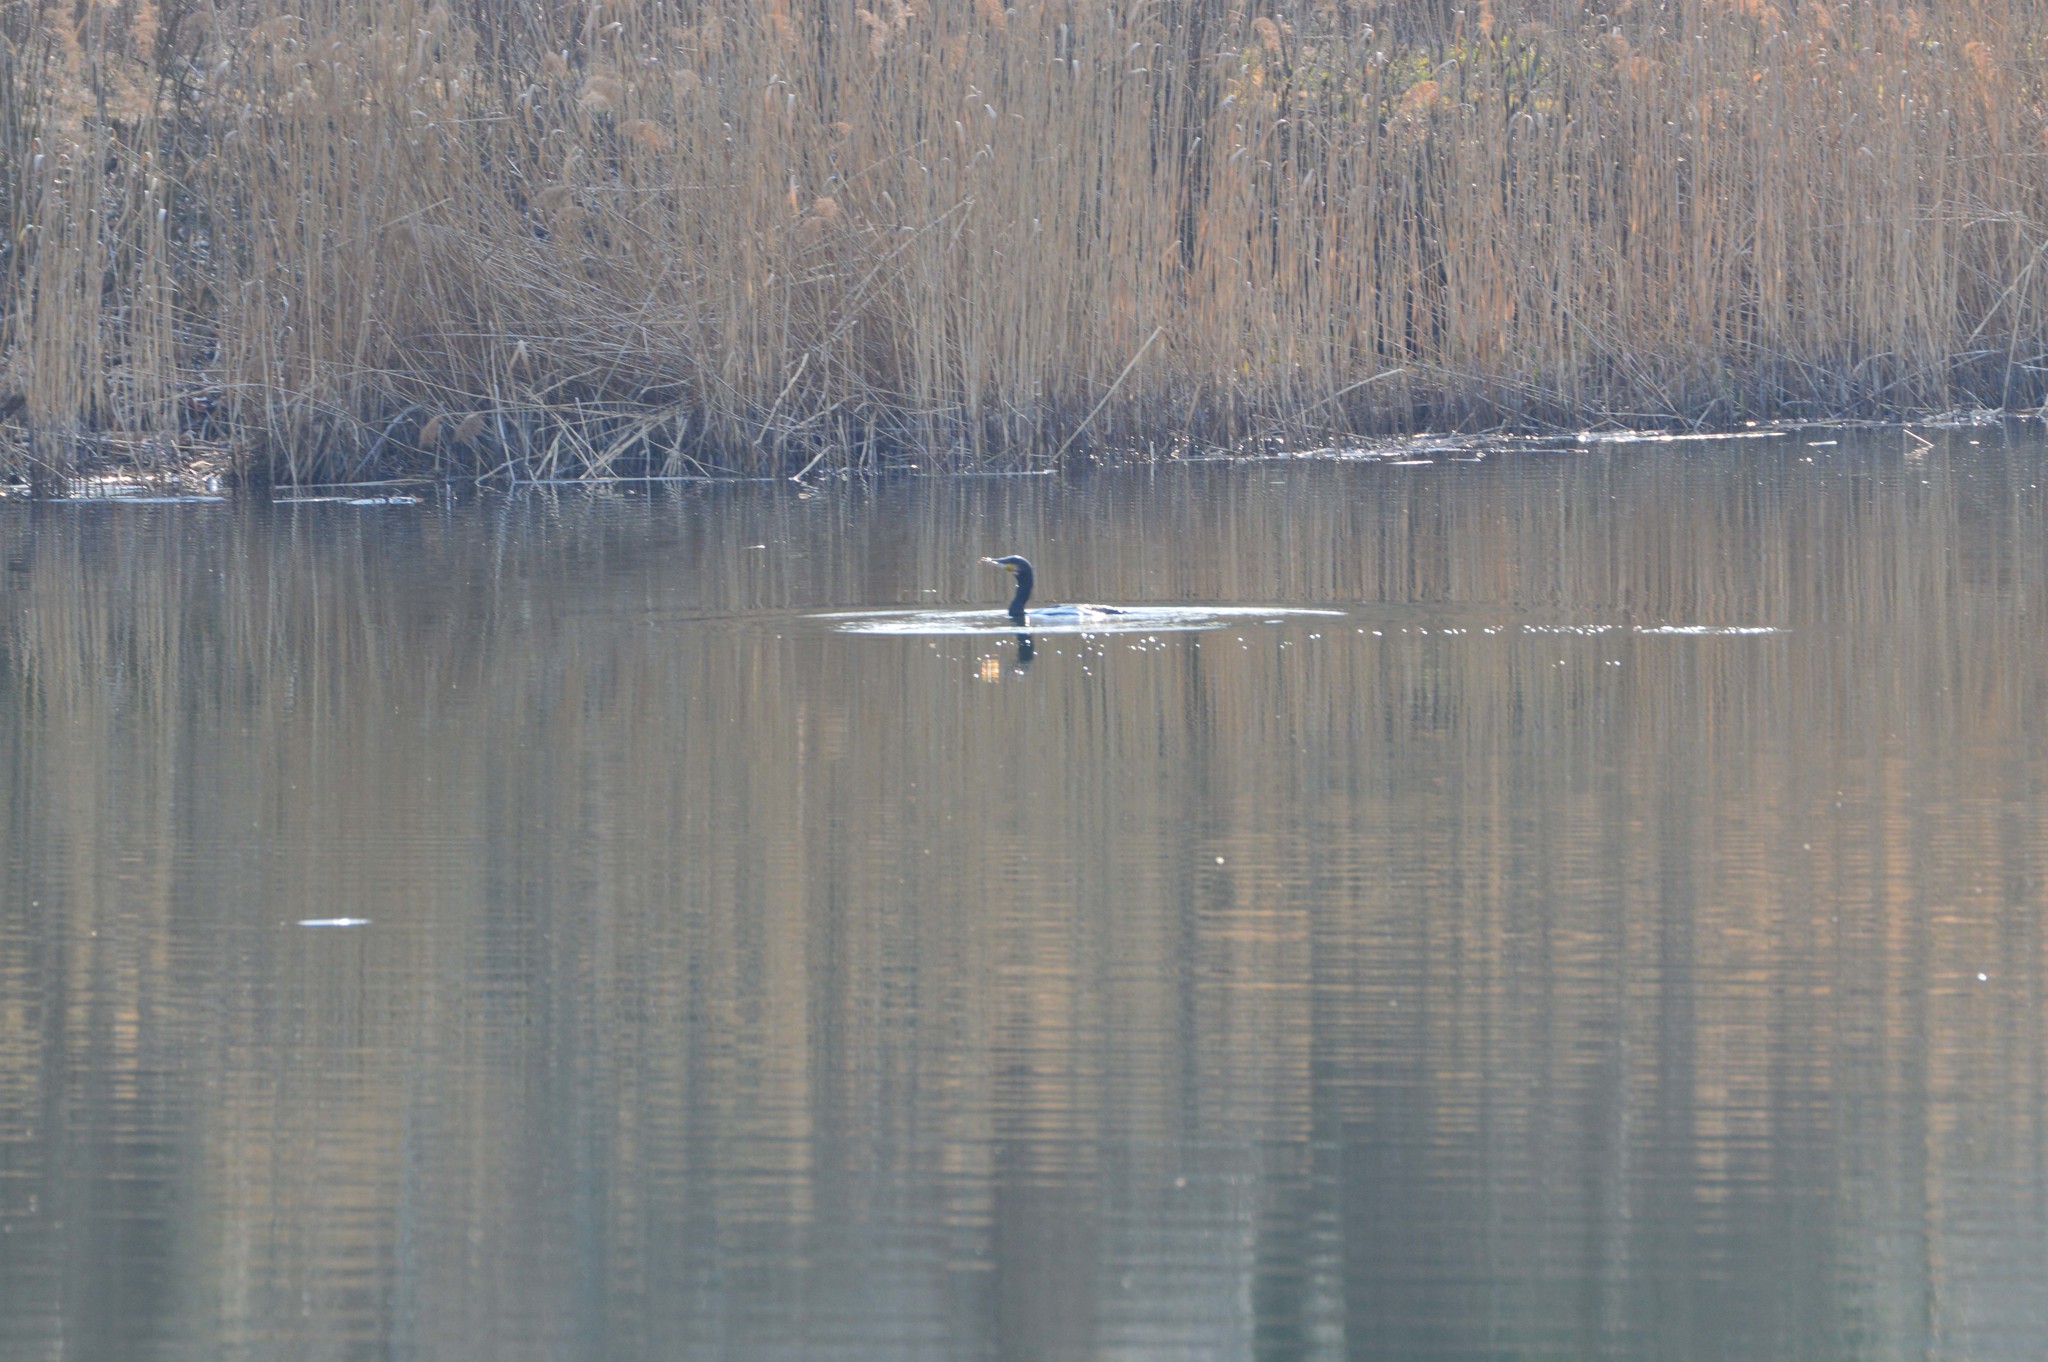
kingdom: Animalia
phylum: Chordata
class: Aves
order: Suliformes
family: Phalacrocoracidae
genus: Phalacrocorax
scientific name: Phalacrocorax carbo
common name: Great cormorant
